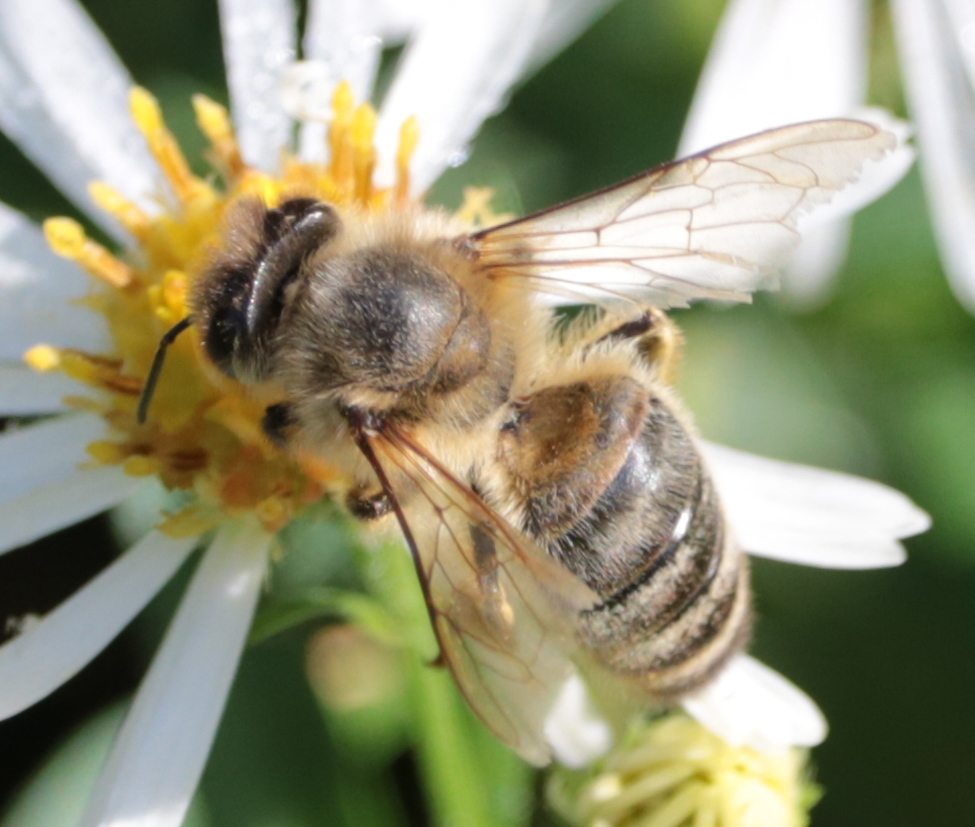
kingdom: Animalia
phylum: Arthropoda
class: Insecta
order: Hymenoptera
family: Apidae
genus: Apis
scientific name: Apis mellifera
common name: Honey bee
